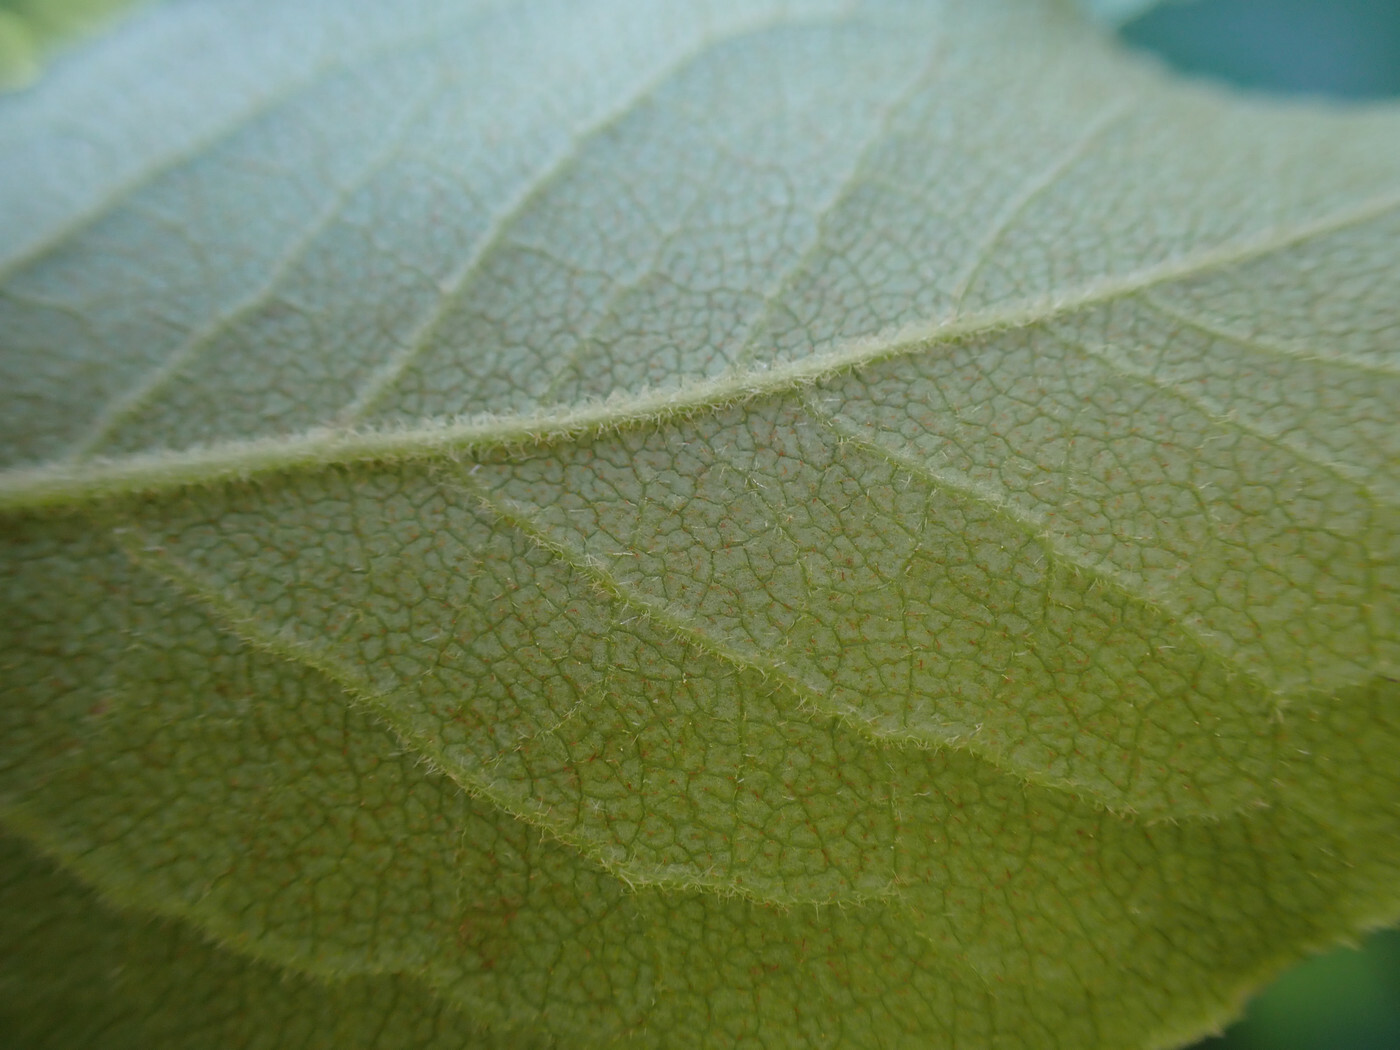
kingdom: Plantae
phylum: Tracheophyta
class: Magnoliopsida
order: Ericales
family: Ericaceae
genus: Lyonia
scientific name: Lyonia ligustrina
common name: Maleberry
